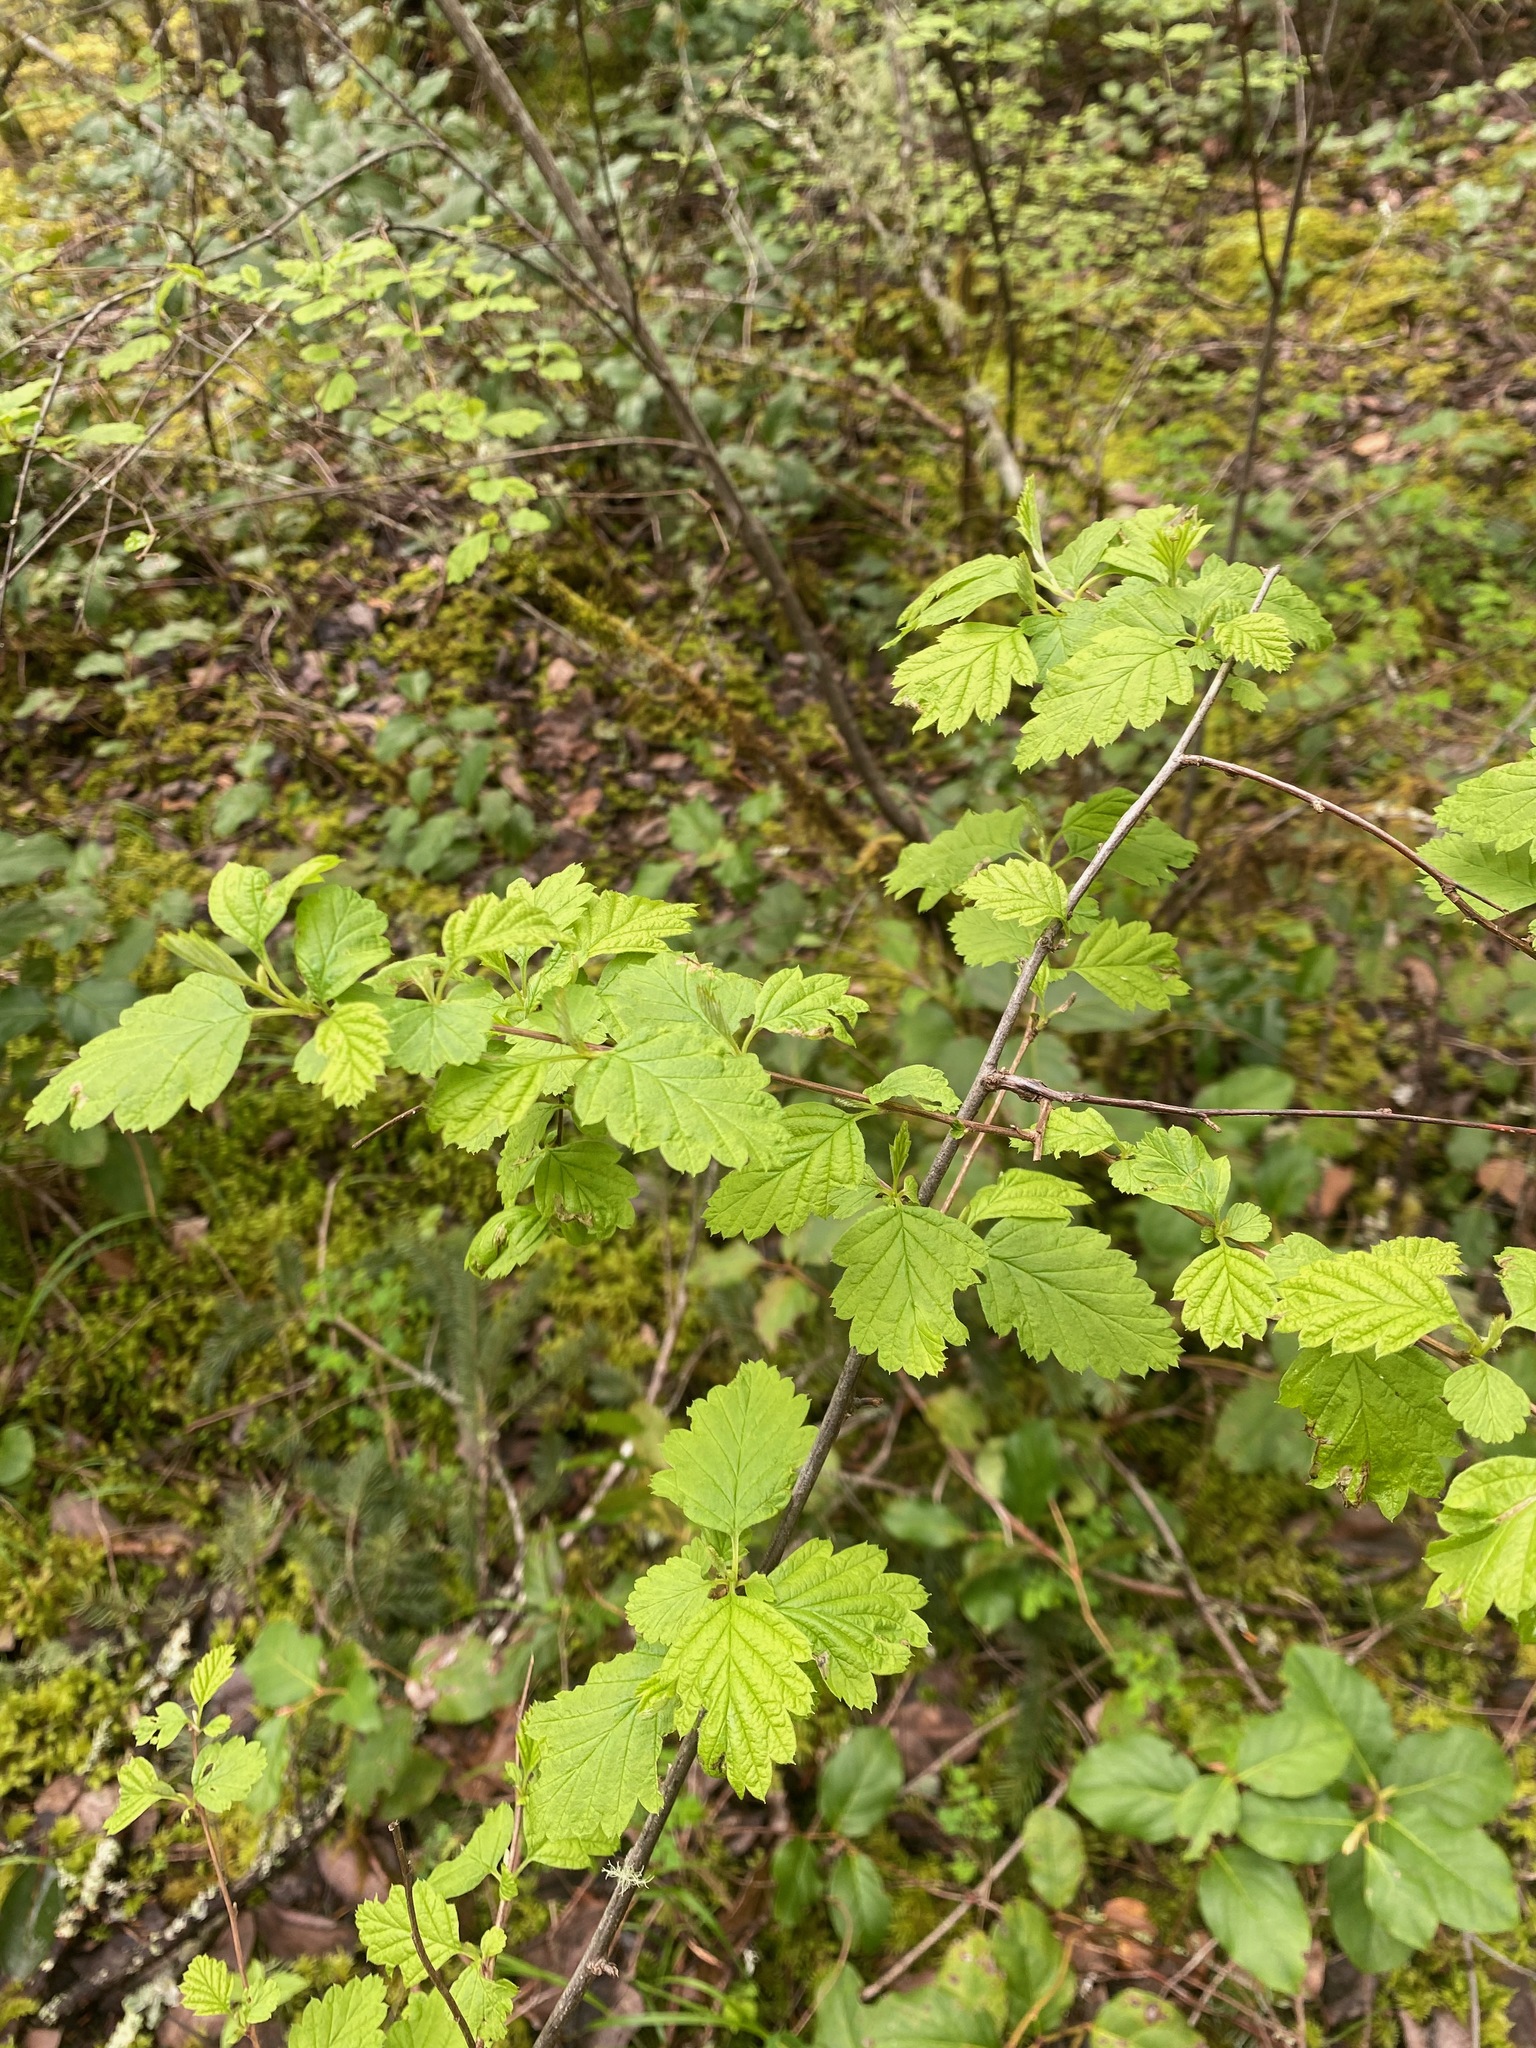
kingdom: Plantae
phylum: Tracheophyta
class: Magnoliopsida
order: Rosales
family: Rosaceae
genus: Holodiscus
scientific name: Holodiscus discolor
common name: Oceanspray
